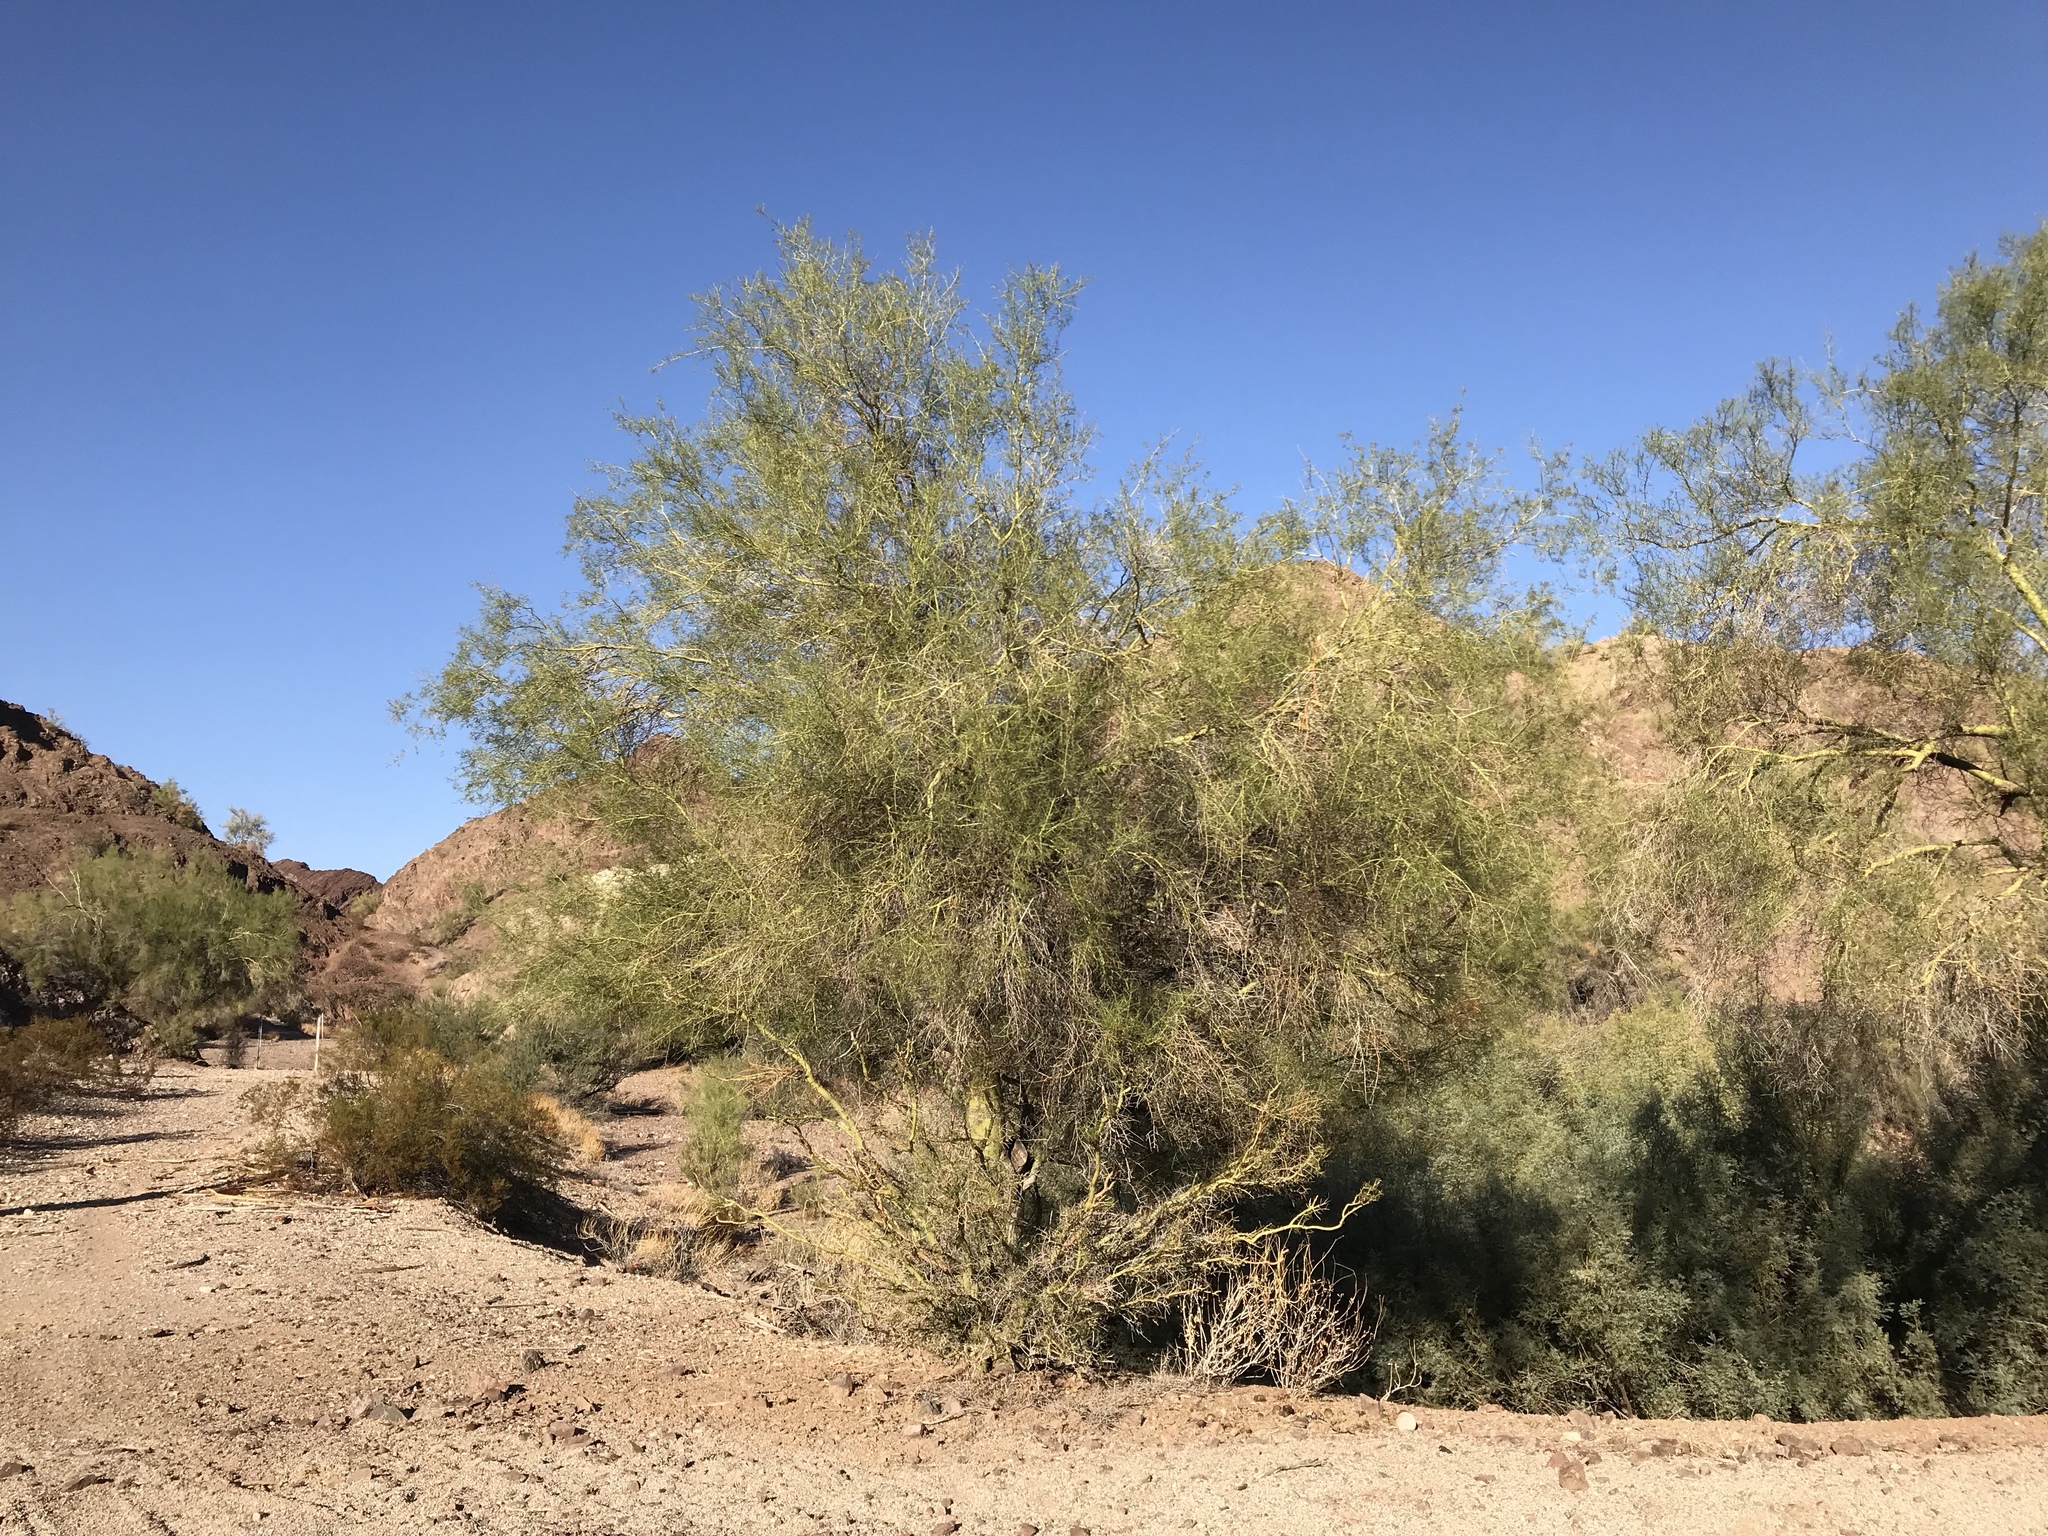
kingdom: Plantae
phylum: Tracheophyta
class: Magnoliopsida
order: Fabales
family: Fabaceae
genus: Parkinsonia
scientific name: Parkinsonia florida
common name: Blue paloverde
